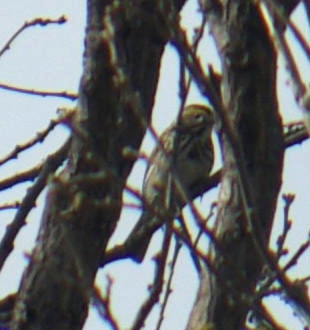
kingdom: Animalia
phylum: Chordata
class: Aves
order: Passeriformes
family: Passerellidae
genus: Passerculus
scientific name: Passerculus sandwichensis
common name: Savannah sparrow
